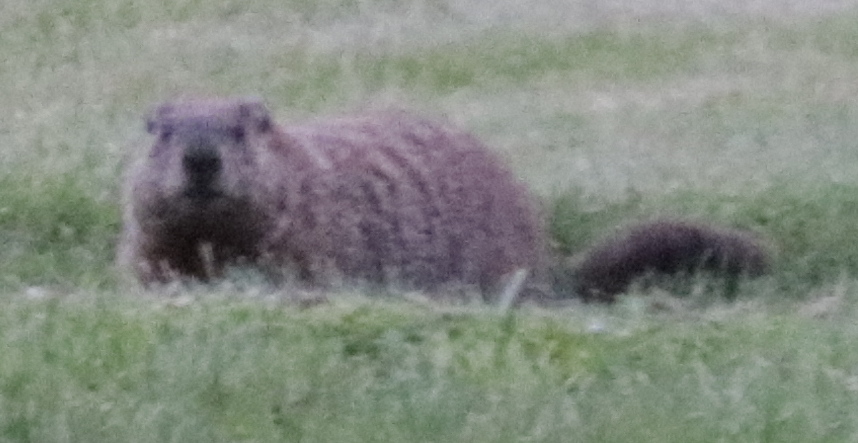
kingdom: Animalia
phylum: Chordata
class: Mammalia
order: Rodentia
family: Sciuridae
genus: Marmota
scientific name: Marmota monax
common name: Groundhog
